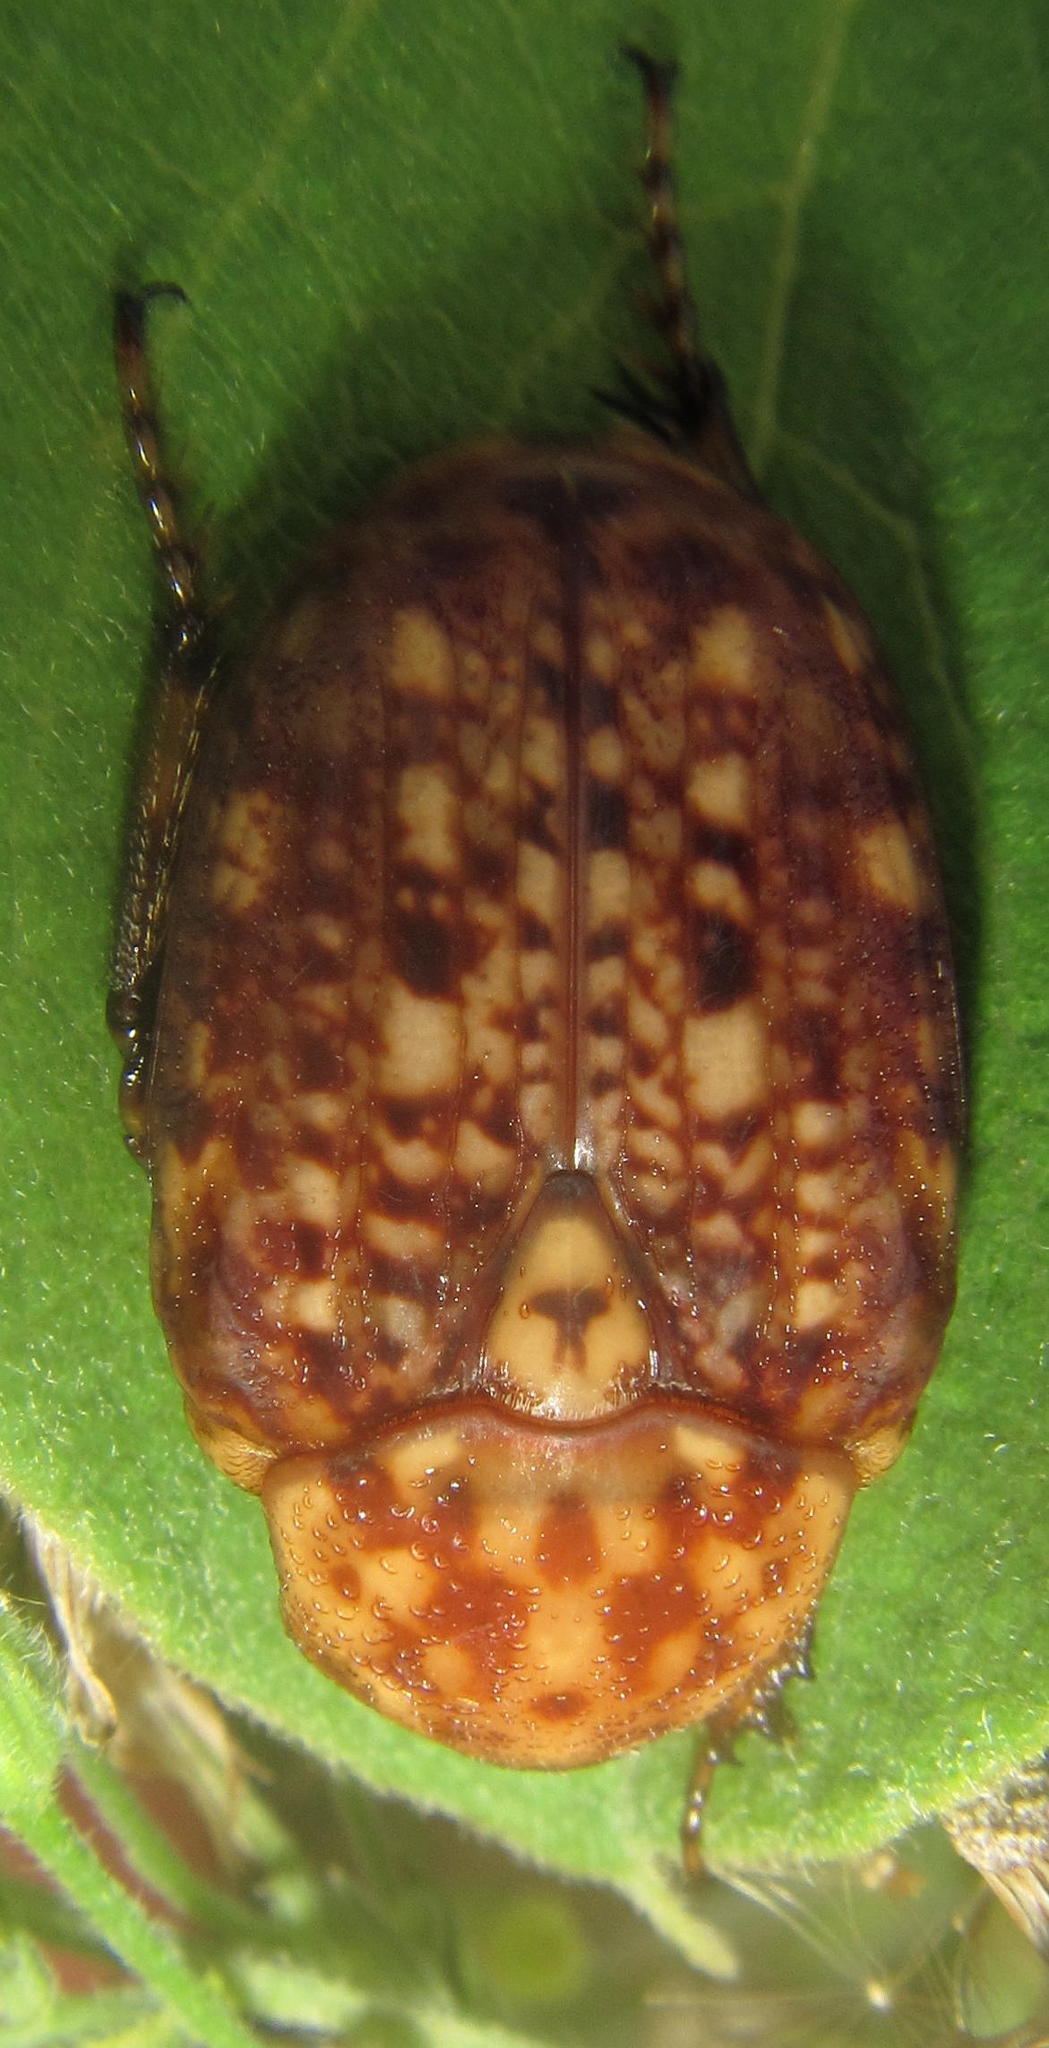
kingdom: Animalia
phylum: Arthropoda
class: Insecta
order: Coleoptera
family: Scarabaeidae
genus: Porphyronota
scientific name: Porphyronota hebraea
